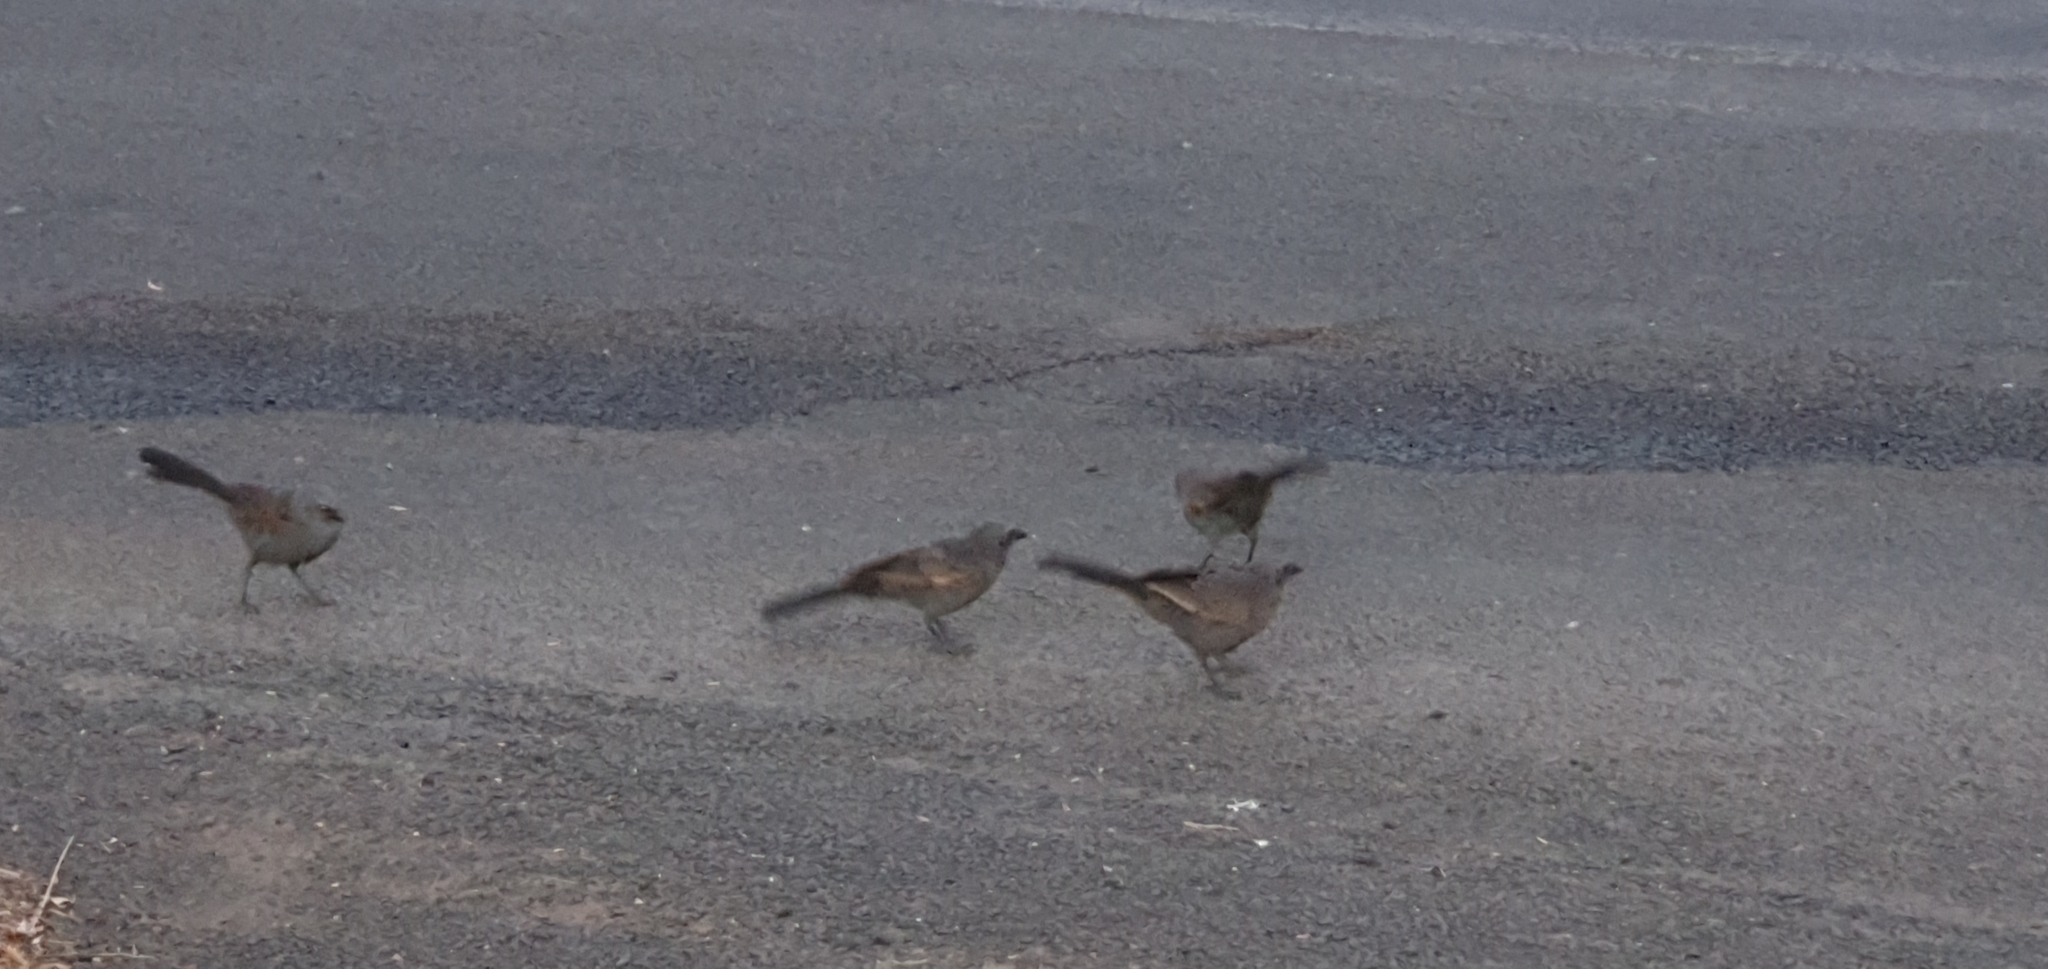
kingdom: Animalia
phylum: Chordata
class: Aves
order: Passeriformes
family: Corcoracidae
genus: Struthidea
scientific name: Struthidea cinerea
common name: Apostlebird
